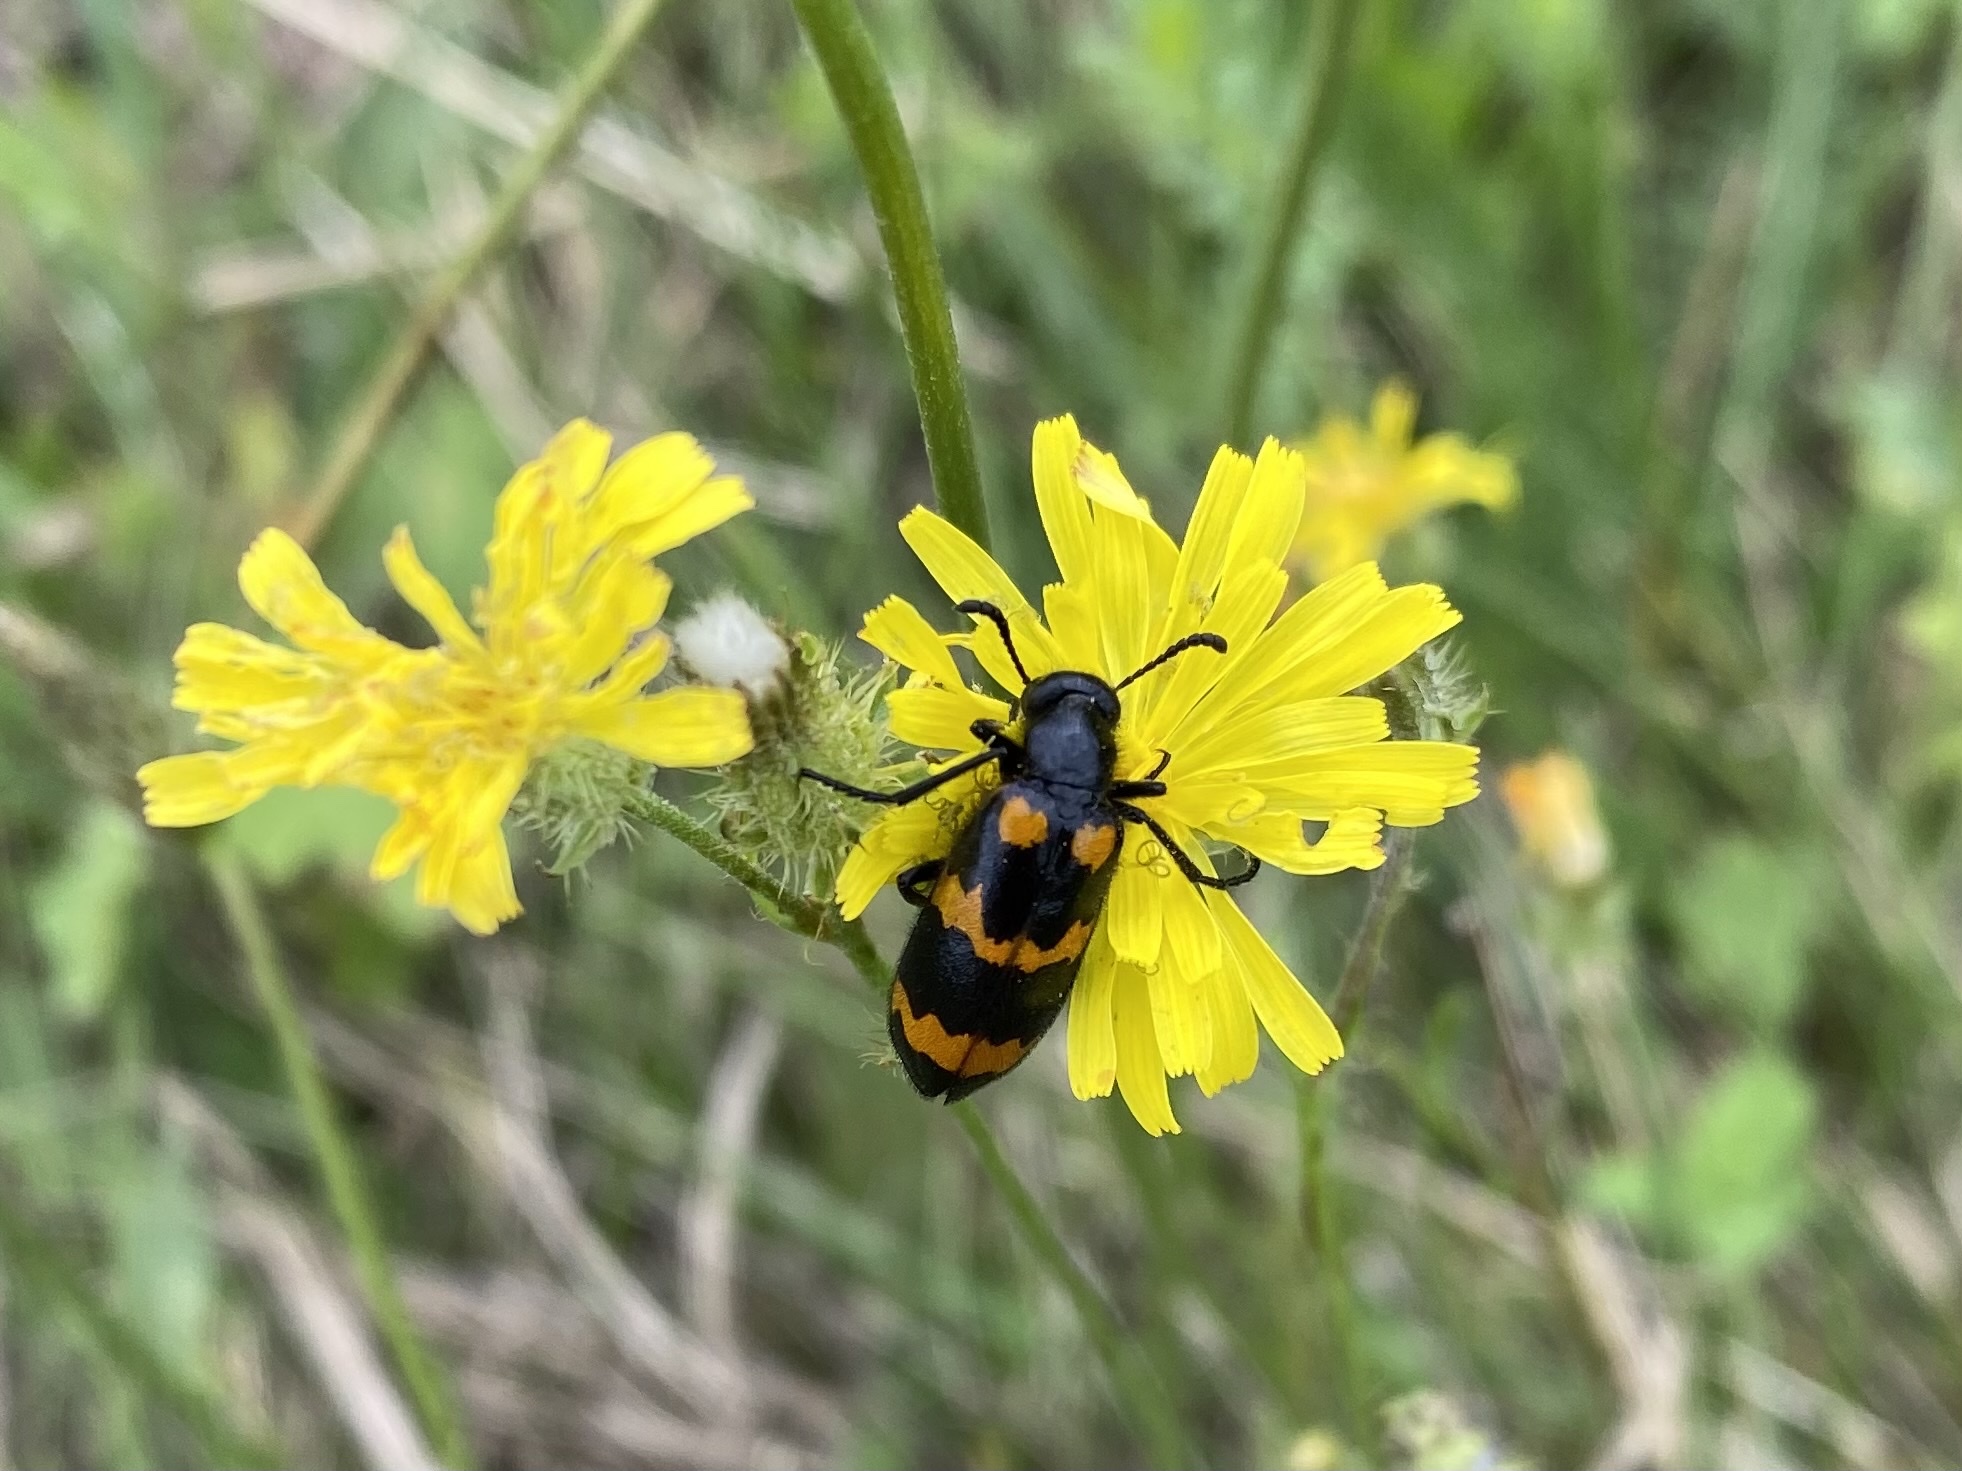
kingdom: Animalia
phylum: Arthropoda
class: Insecta
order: Coleoptera
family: Meloidae
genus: Mylabris
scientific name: Mylabris variabilis
